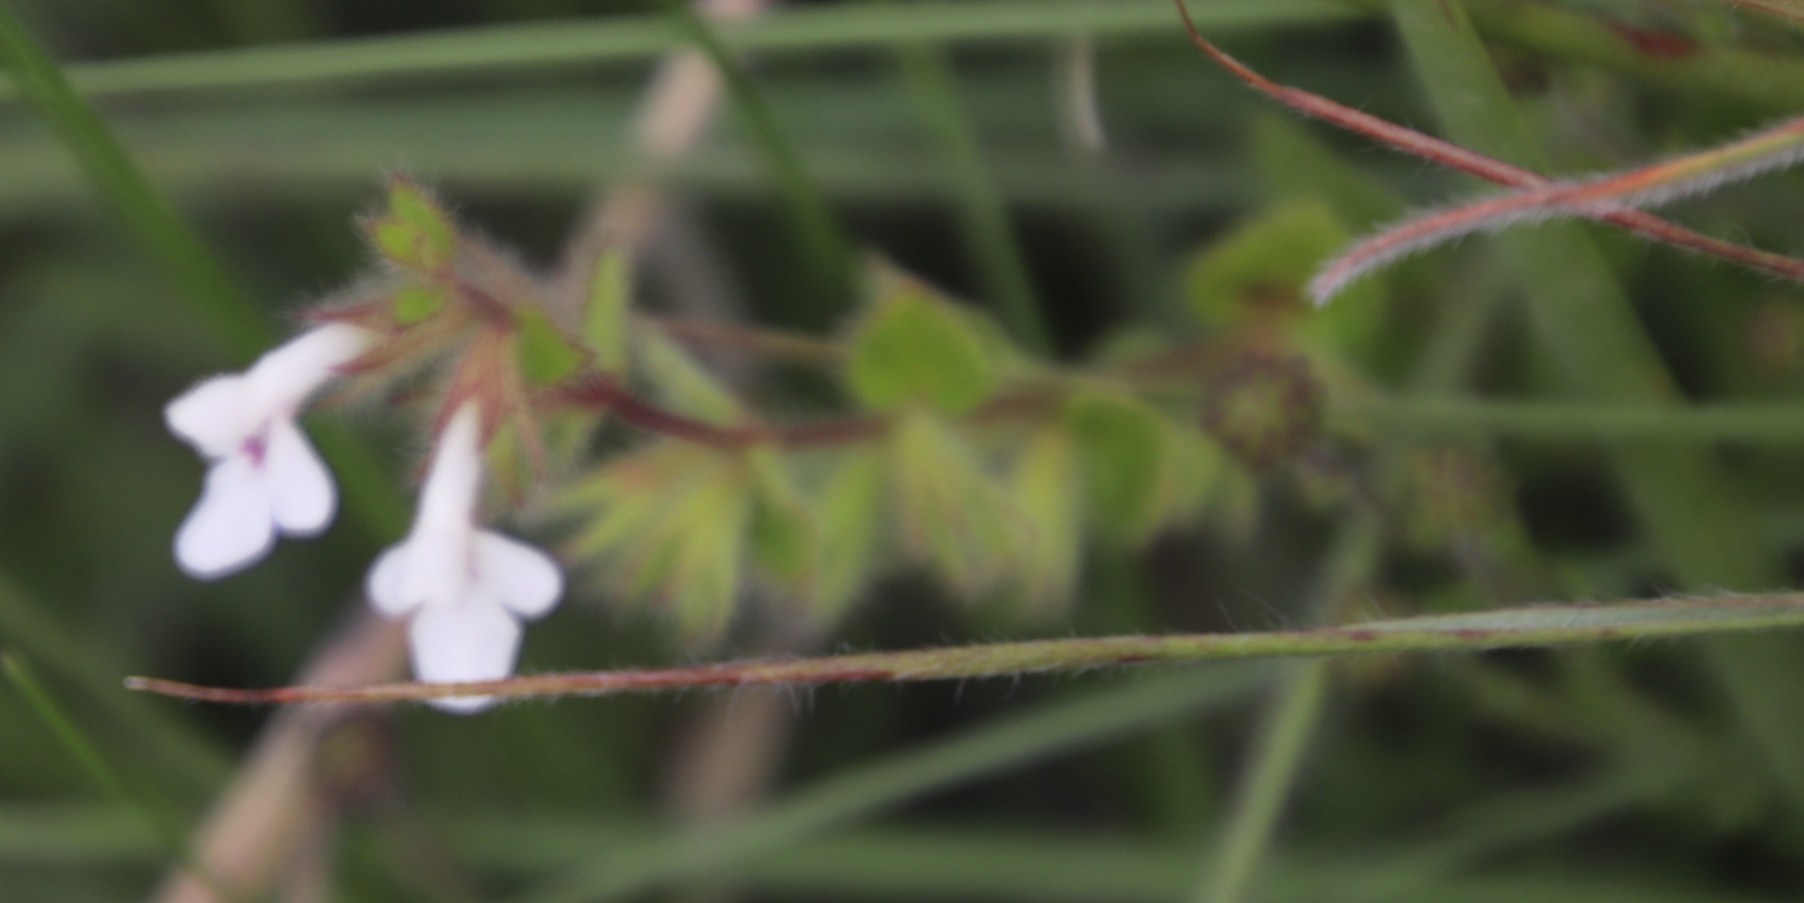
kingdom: Plantae
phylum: Tracheophyta
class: Magnoliopsida
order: Lamiales
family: Lamiaceae
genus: Stachys
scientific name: Stachys natalensis
